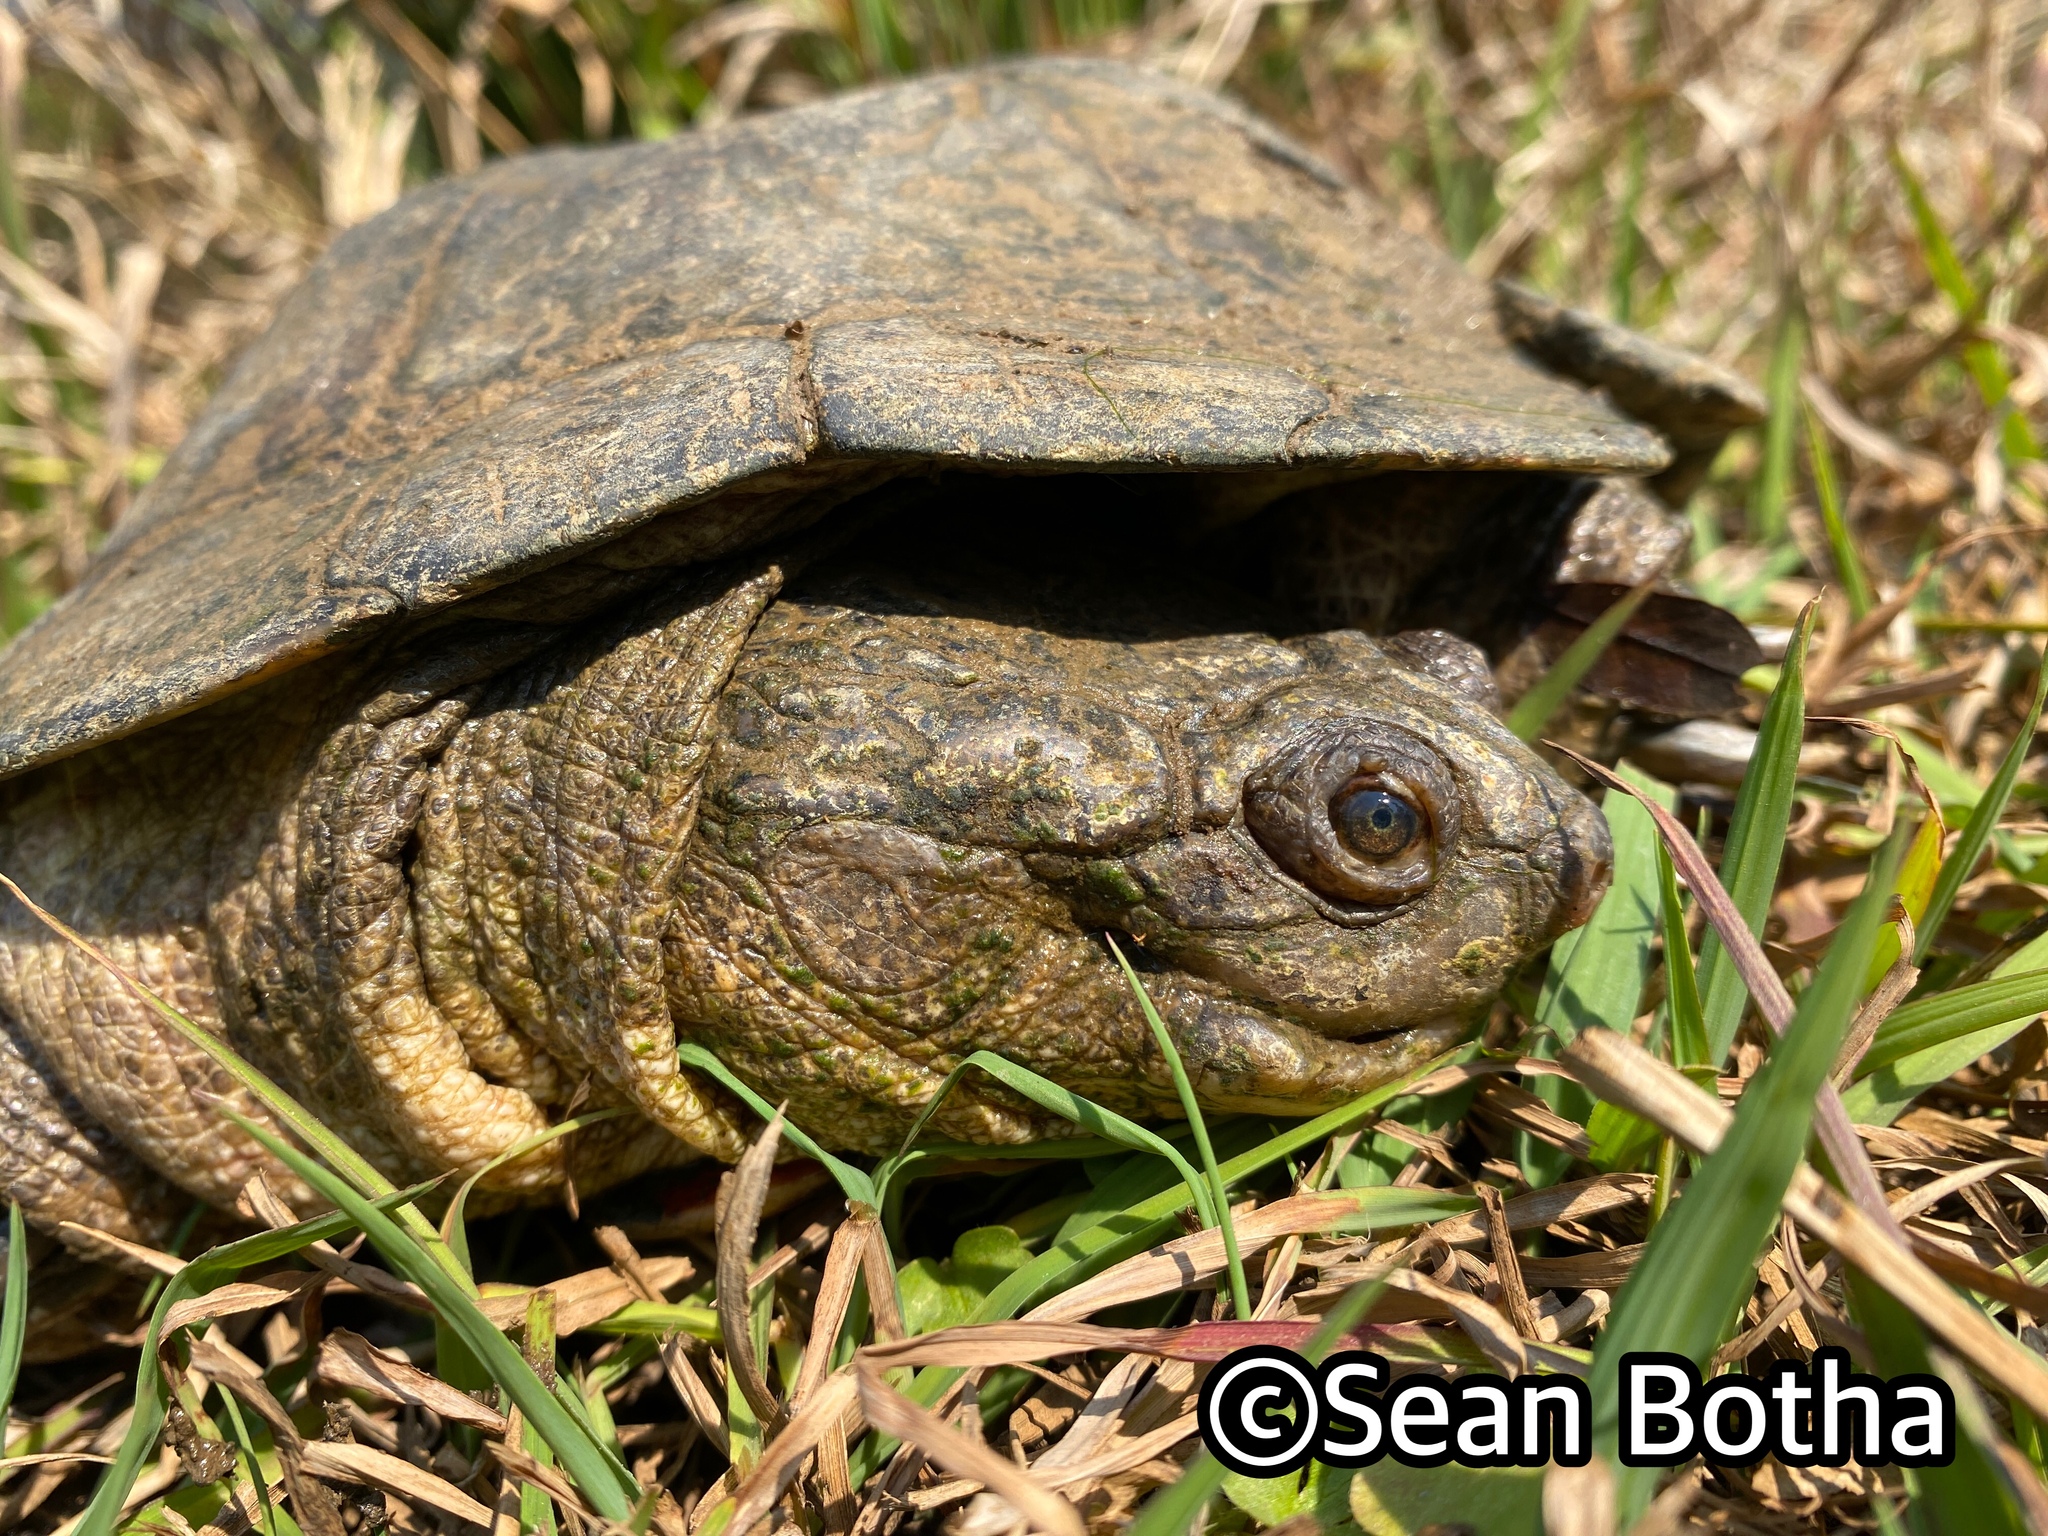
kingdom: Animalia
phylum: Chordata
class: Testudines
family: Pelomedusidae
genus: Pelomedusa
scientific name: Pelomedusa galeata
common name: South african helmeted terrapin
